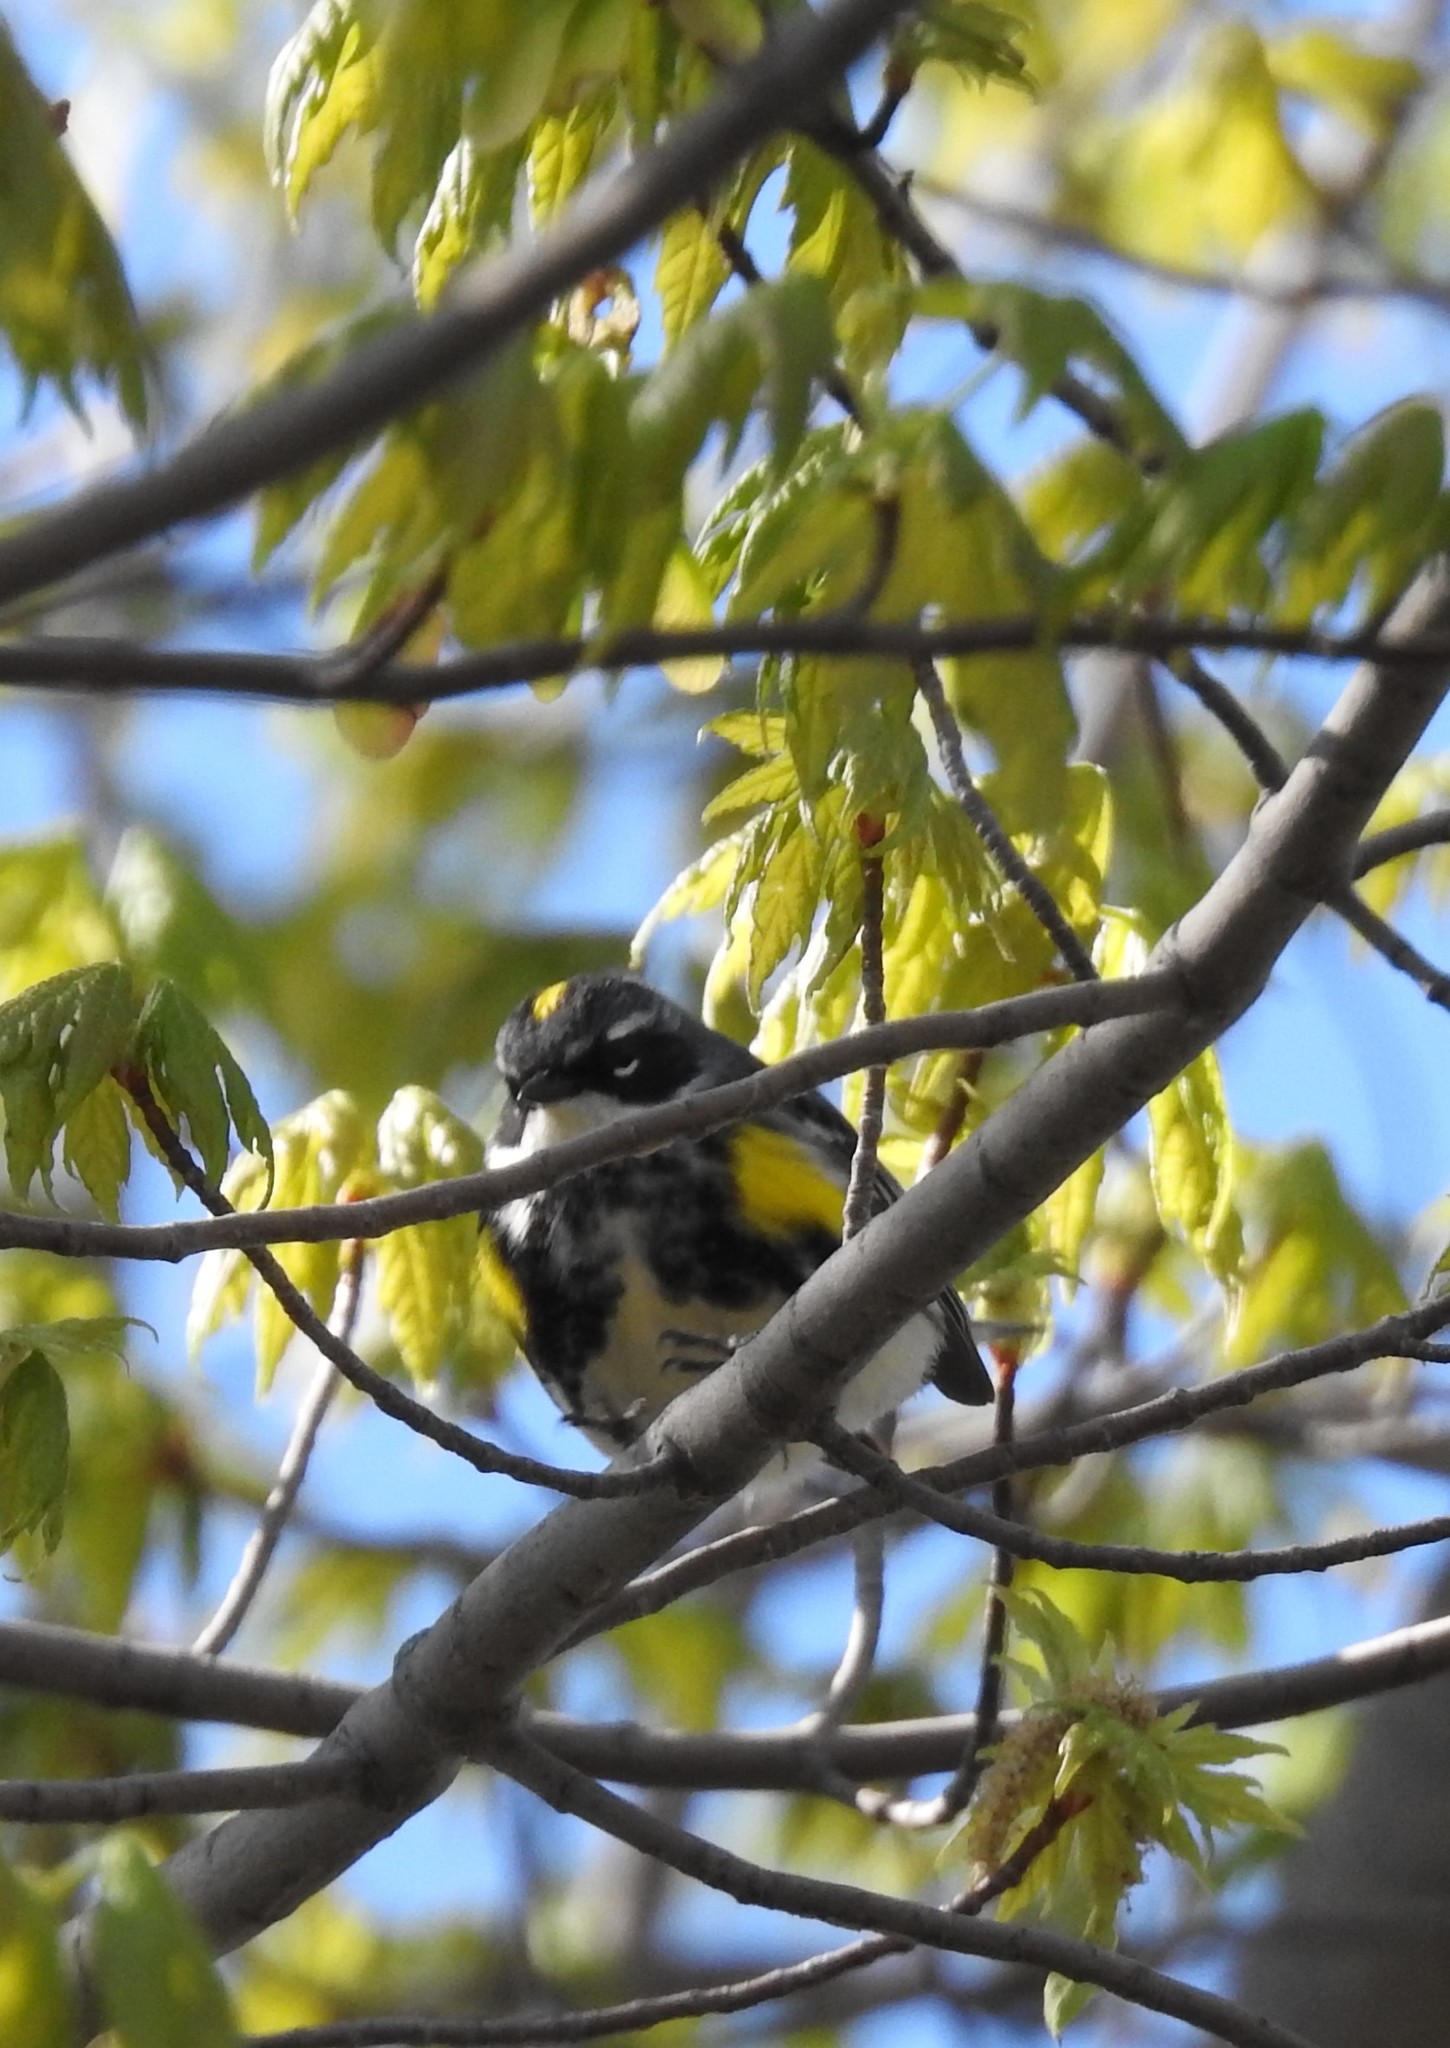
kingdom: Animalia
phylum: Chordata
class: Aves
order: Passeriformes
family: Parulidae
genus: Setophaga
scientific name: Setophaga coronata
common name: Myrtle warbler
